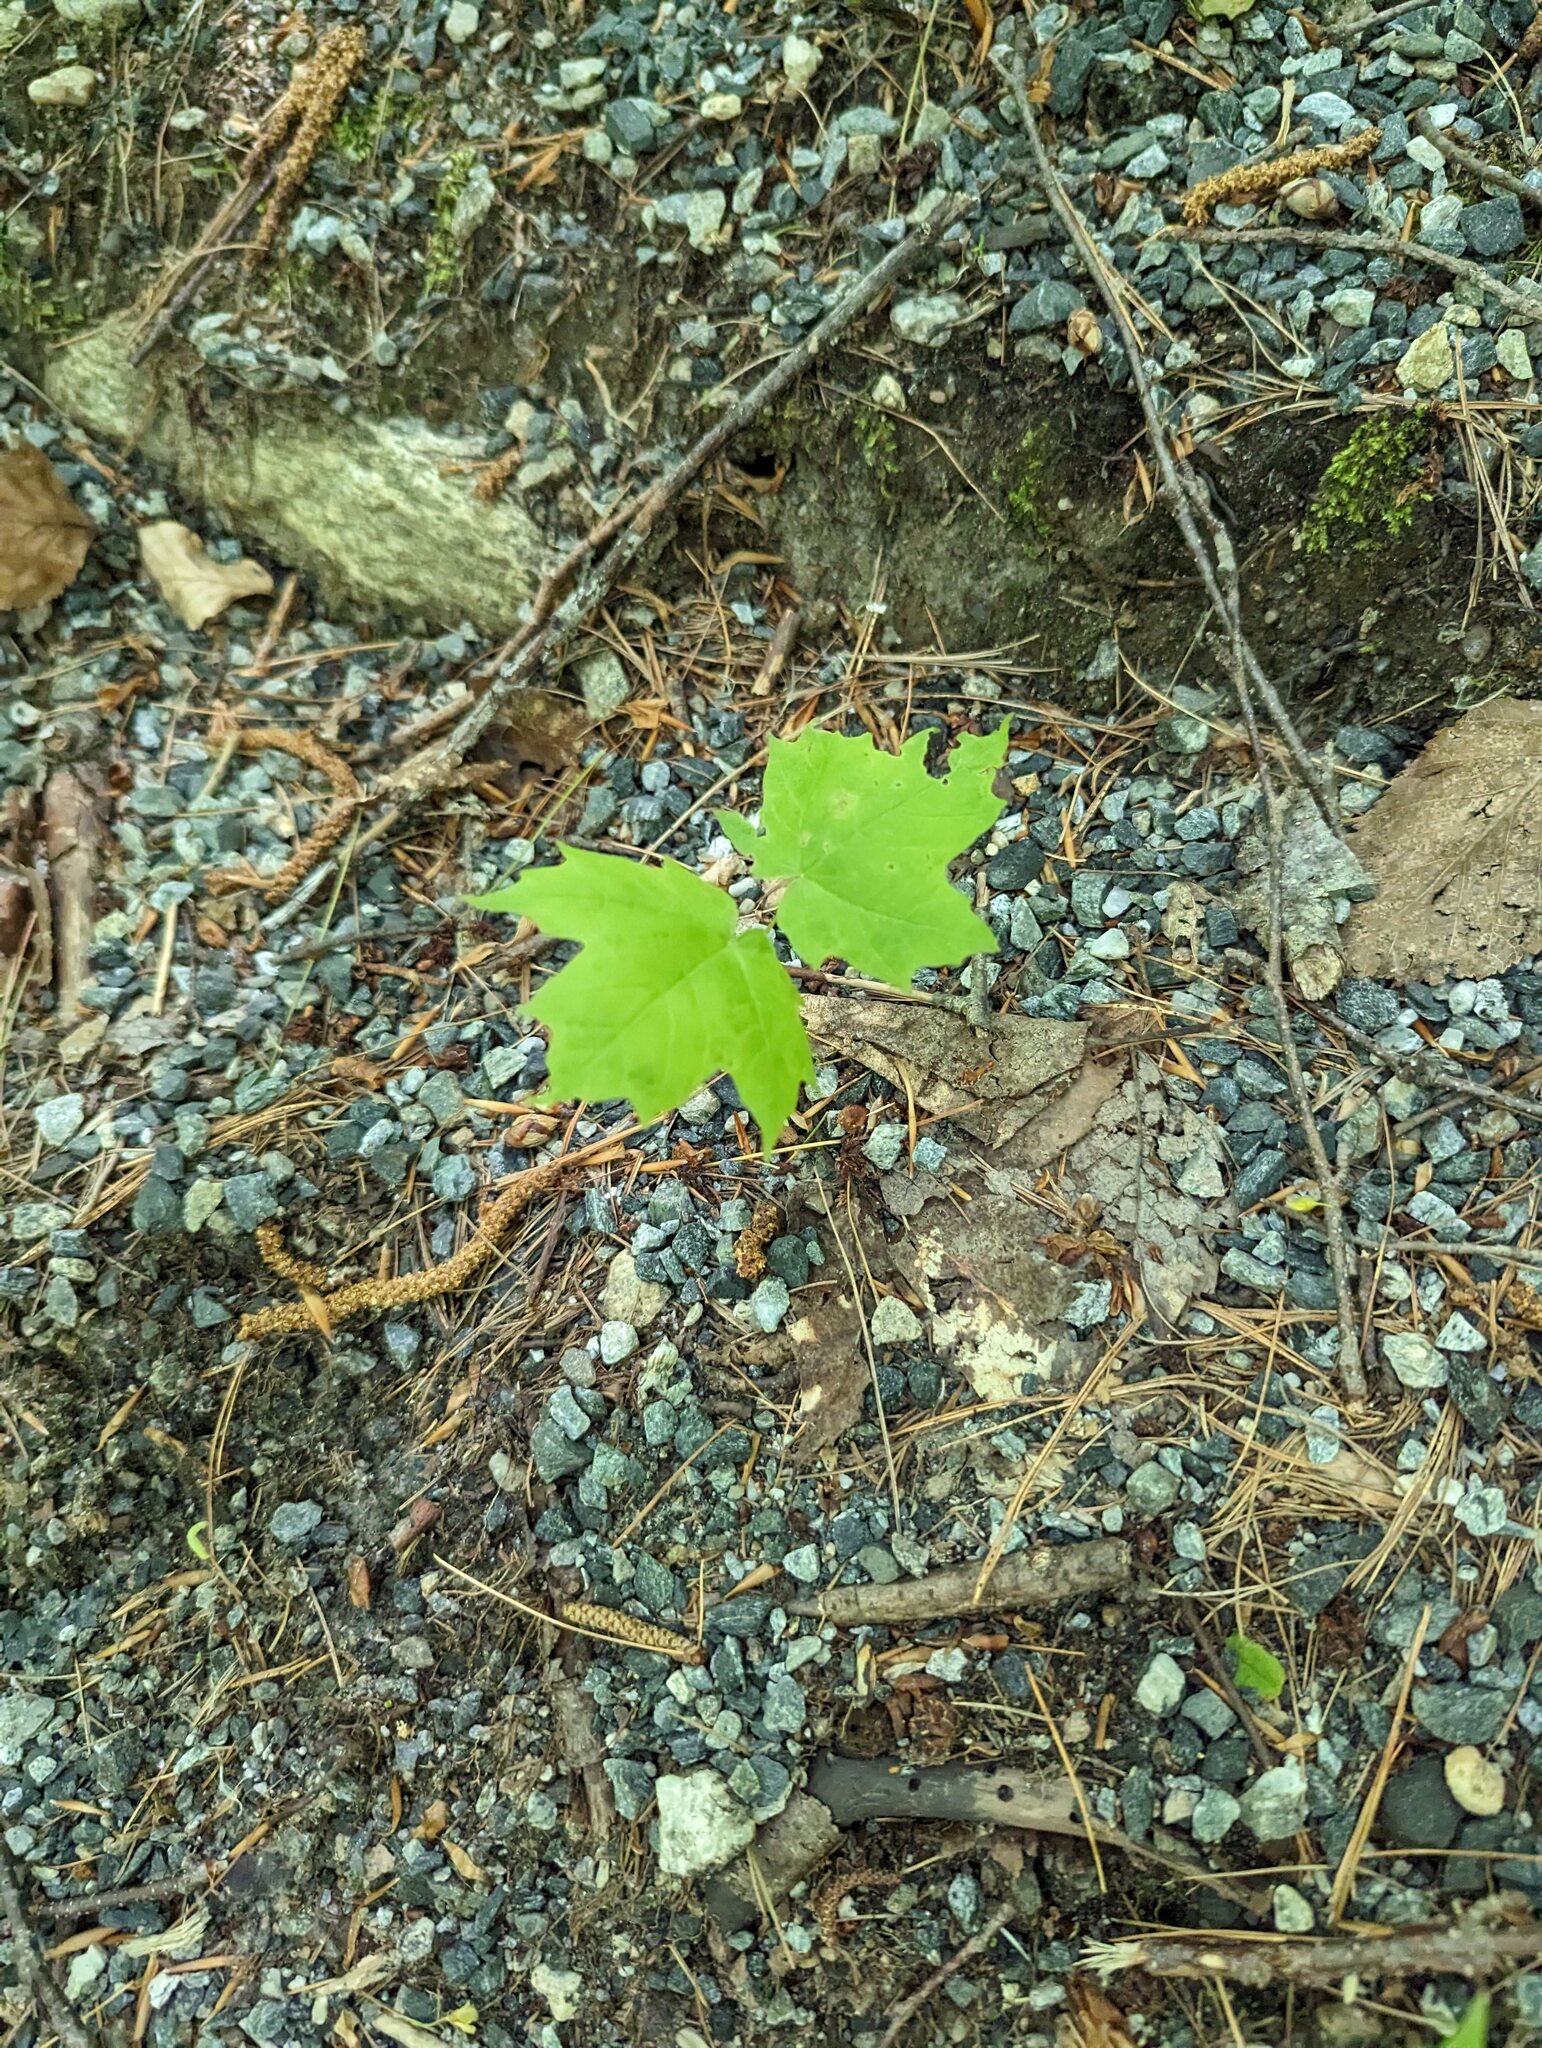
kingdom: Plantae
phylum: Tracheophyta
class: Magnoliopsida
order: Sapindales
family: Sapindaceae
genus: Acer
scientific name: Acer saccharum
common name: Sugar maple
